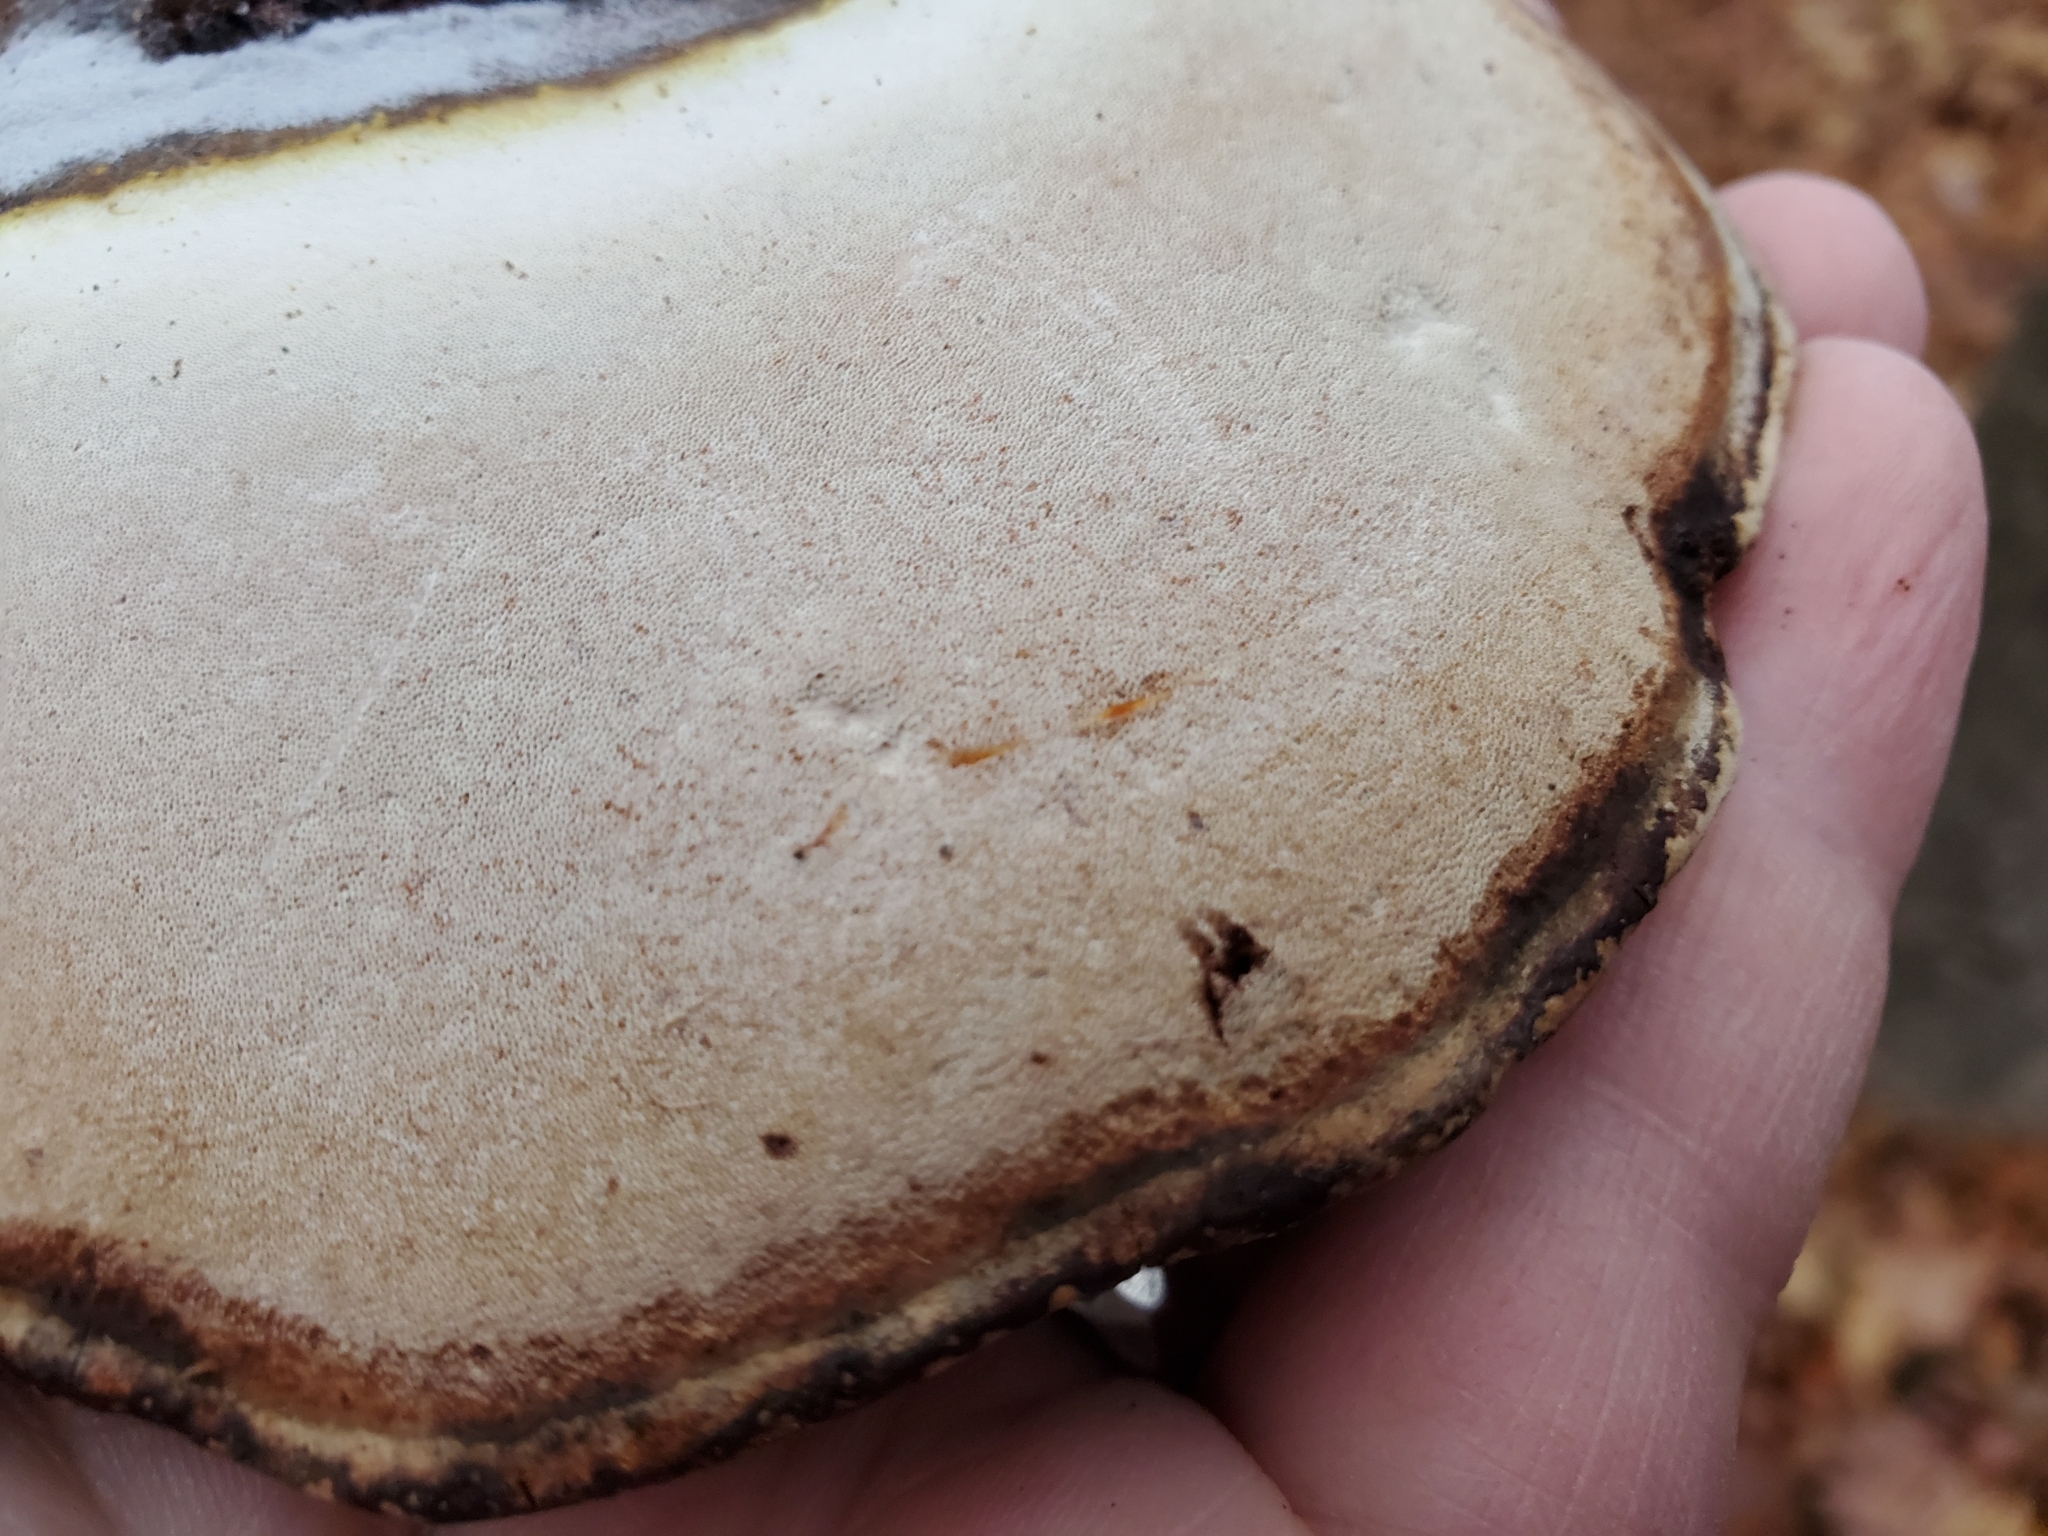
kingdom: Fungi
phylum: Basidiomycota
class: Agaricomycetes
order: Polyporales
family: Polyporaceae
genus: Ganoderma
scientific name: Ganoderma applanatum
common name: Artist's bracket
